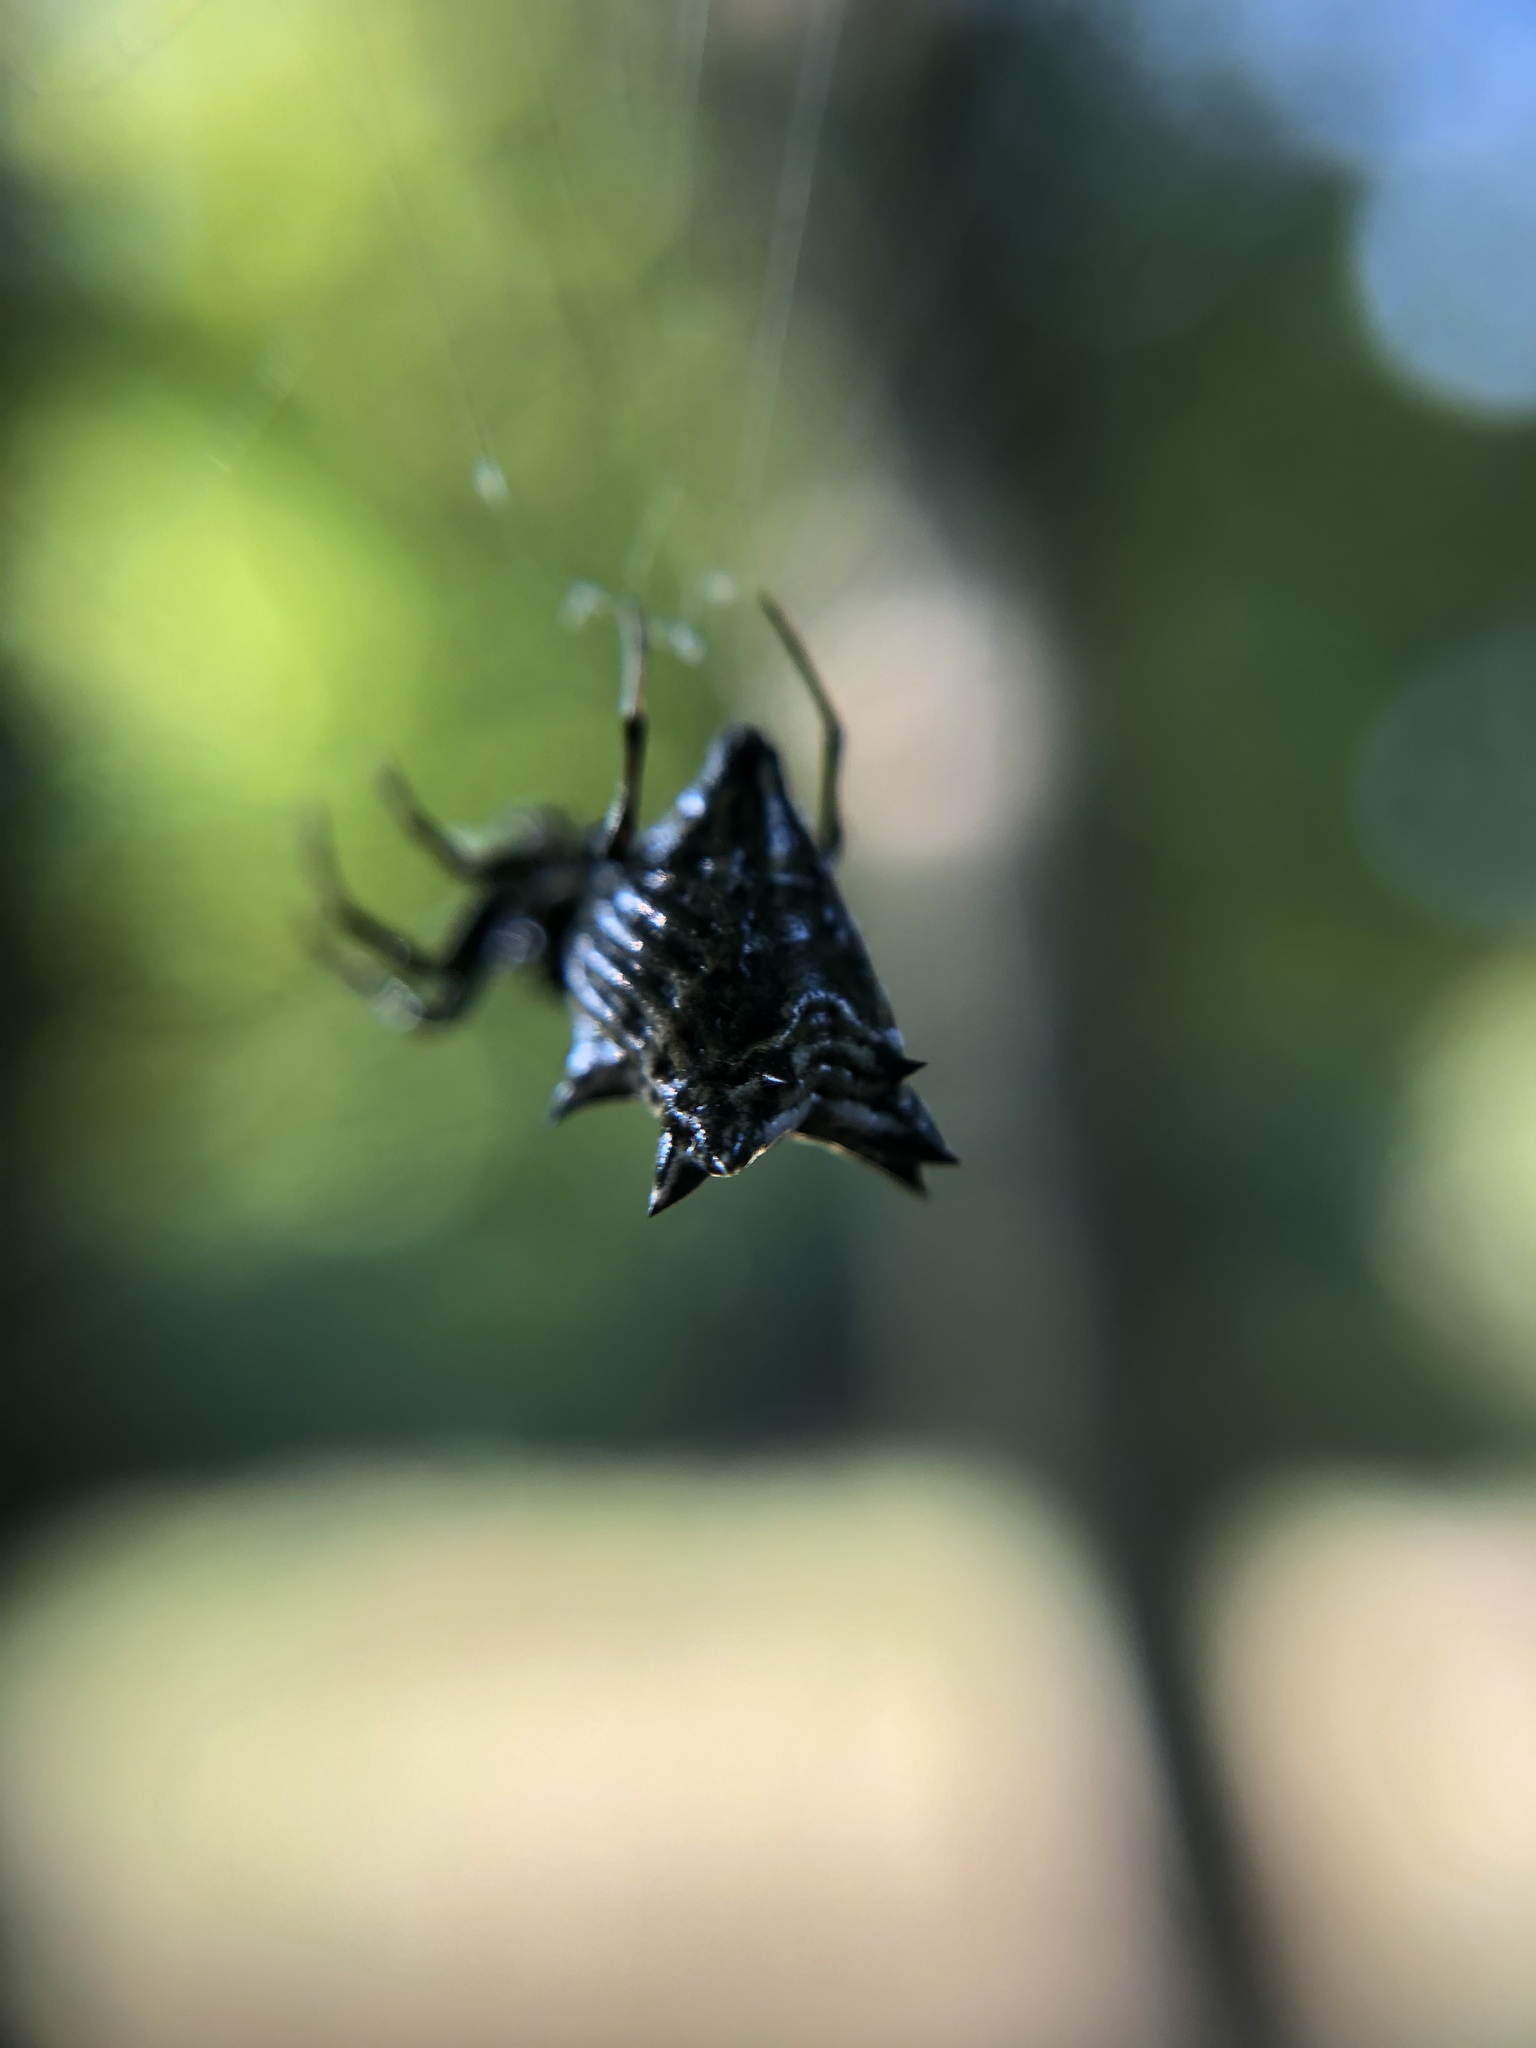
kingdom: Animalia
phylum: Arthropoda
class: Arachnida
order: Araneae
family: Araneidae
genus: Micrathena
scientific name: Micrathena gracilis
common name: Orb weavers
